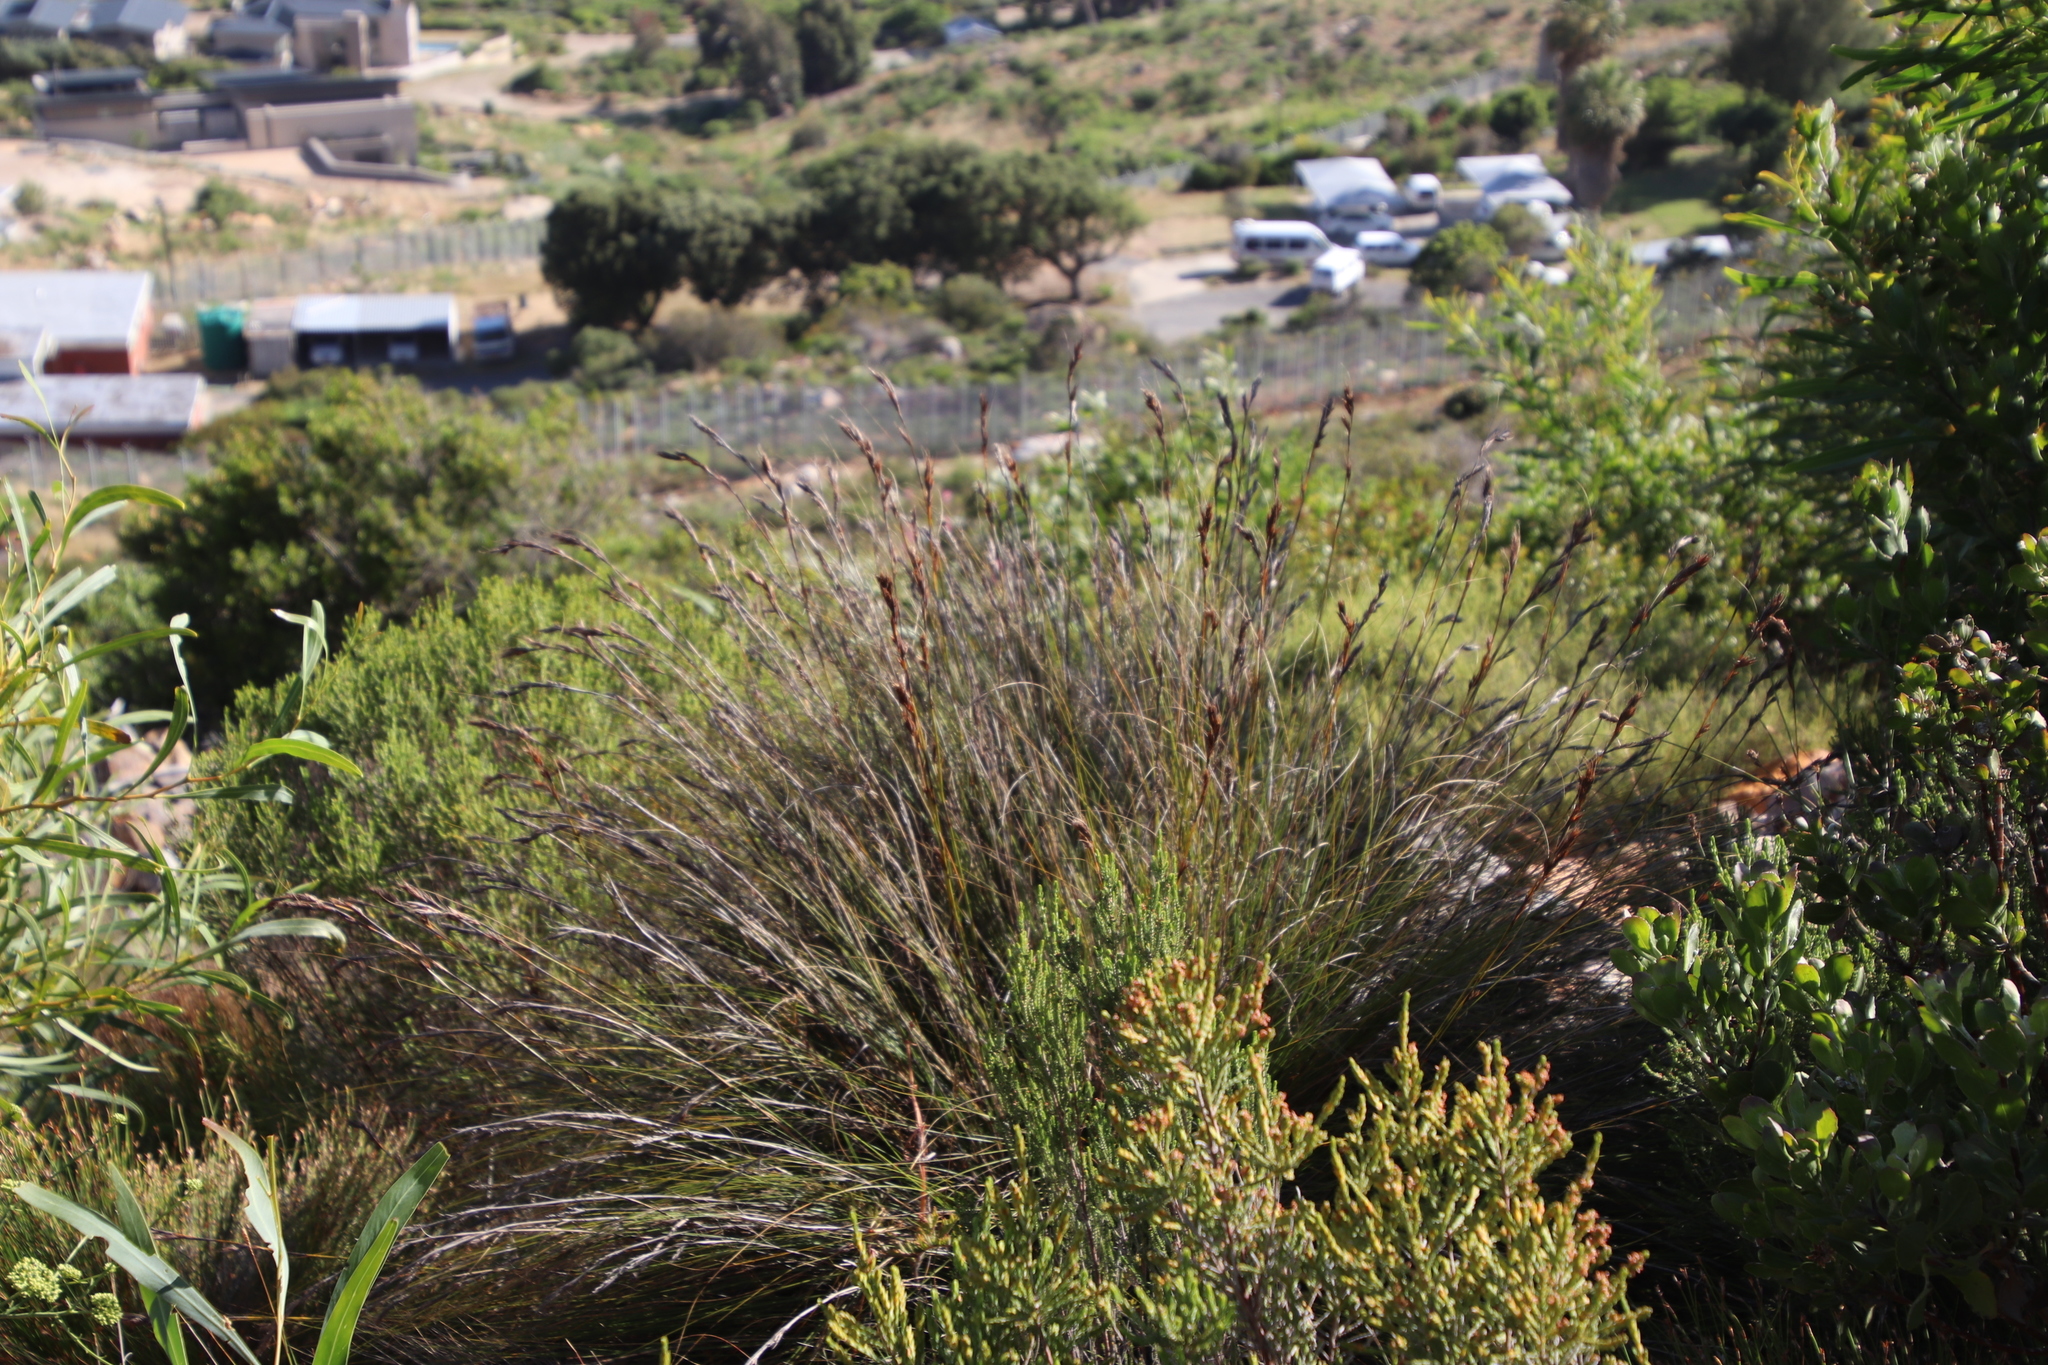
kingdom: Plantae
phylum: Tracheophyta
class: Liliopsida
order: Poales
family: Cyperaceae
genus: Tetraria
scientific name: Tetraria ustulata
